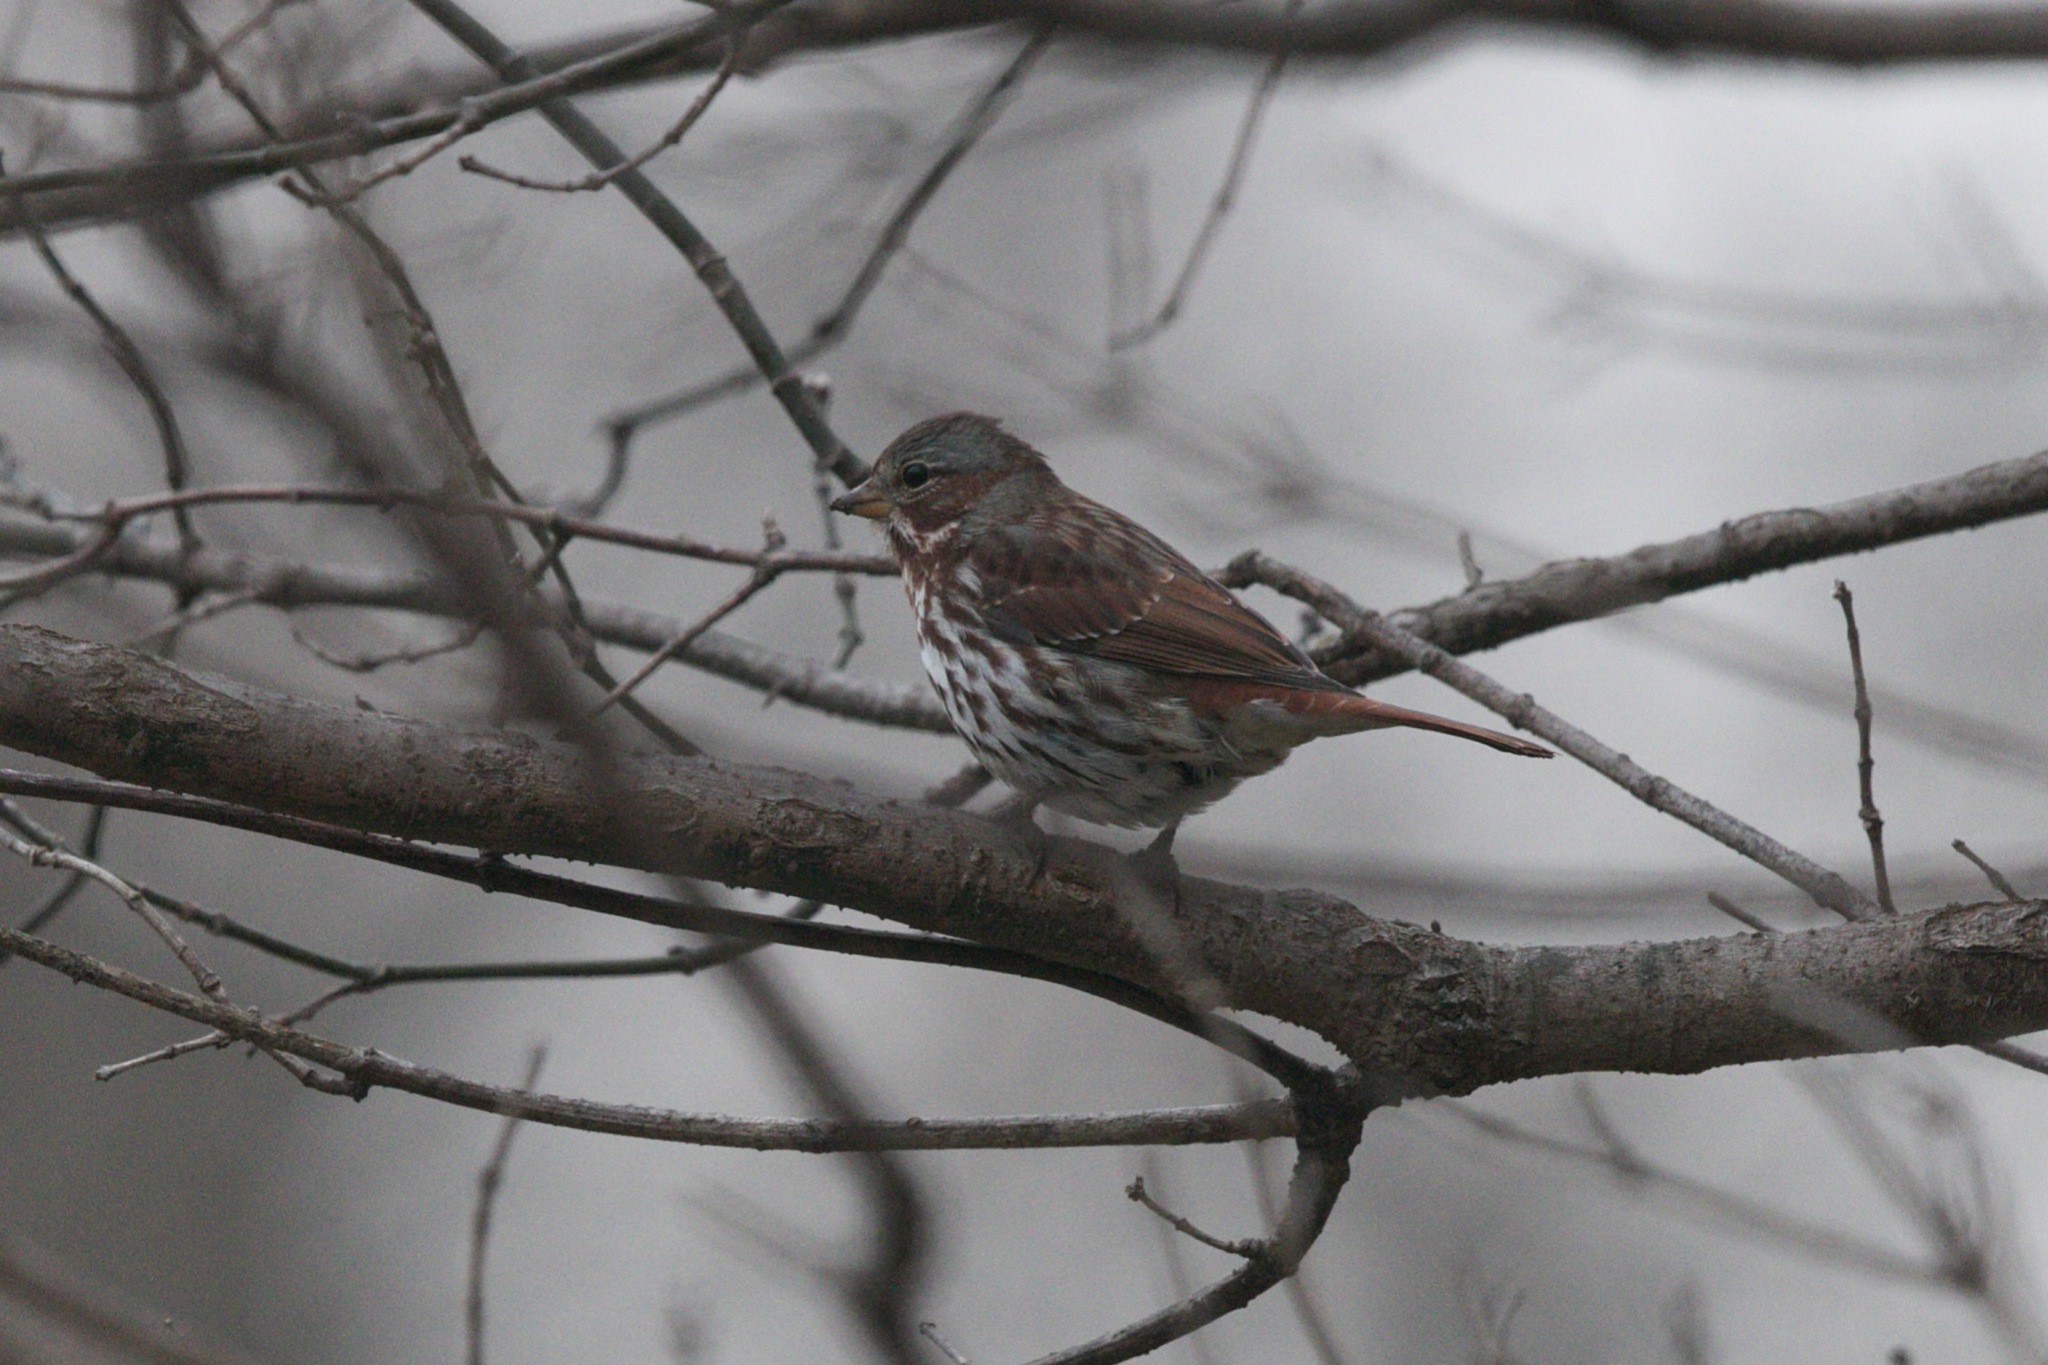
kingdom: Animalia
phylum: Chordata
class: Aves
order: Passeriformes
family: Passerellidae
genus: Passerella
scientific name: Passerella iliaca
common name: Fox sparrow
